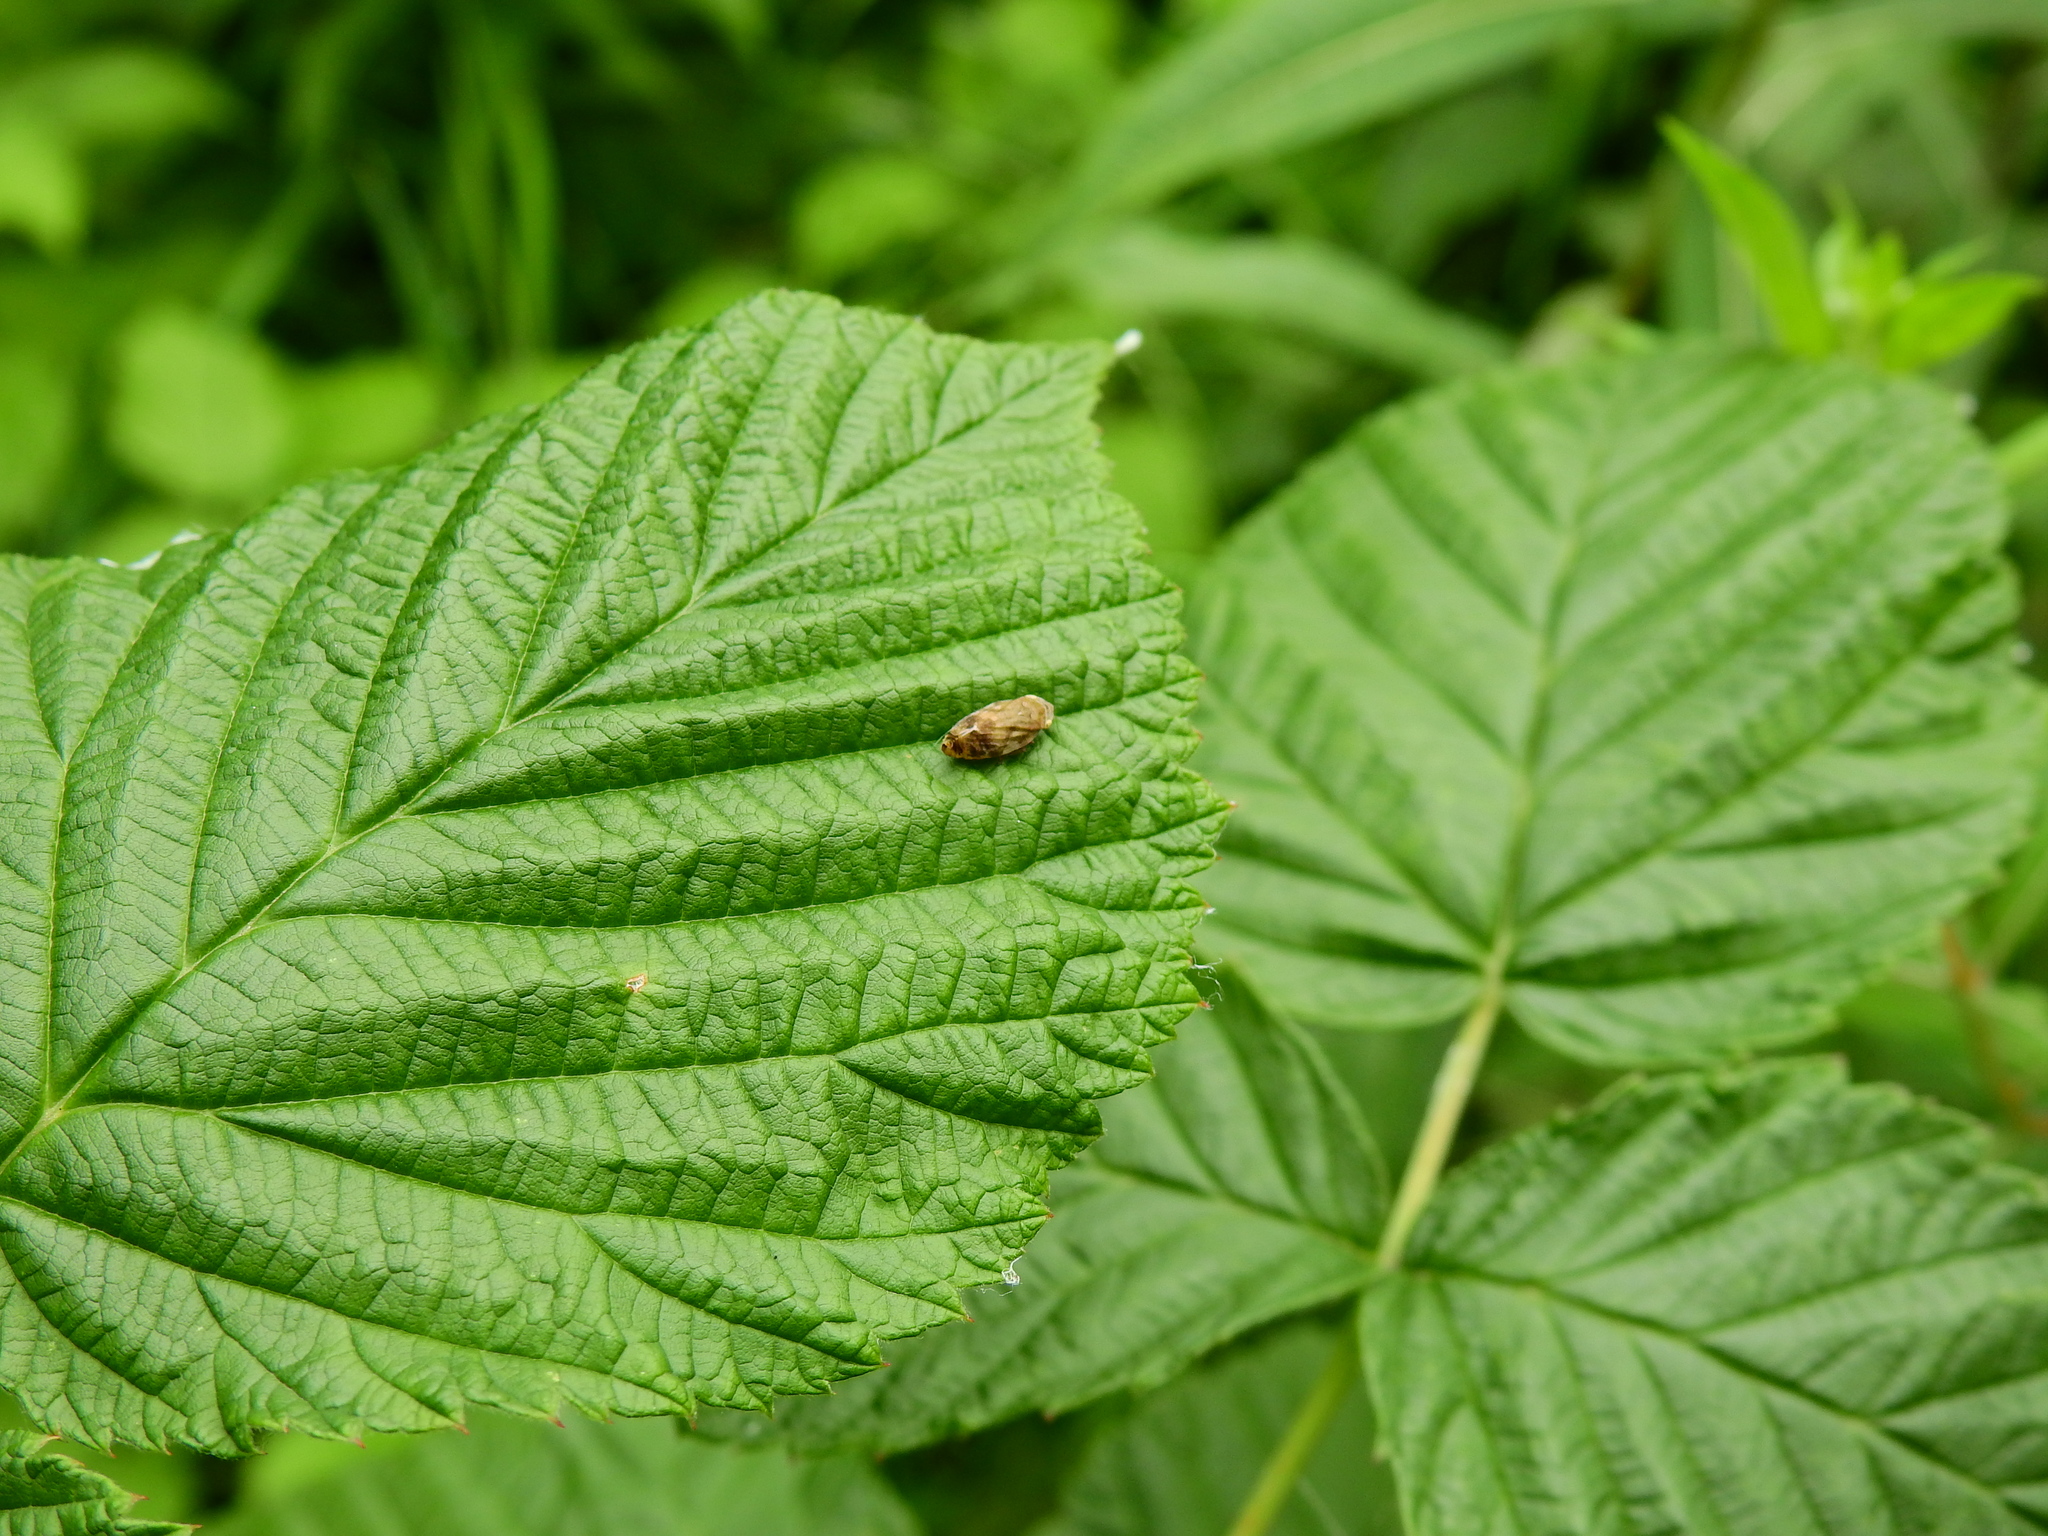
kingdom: Animalia
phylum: Arthropoda
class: Insecta
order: Hemiptera
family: Aphrophoridae
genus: Philaenus
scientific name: Philaenus spumarius
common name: Meadow spittlebug
